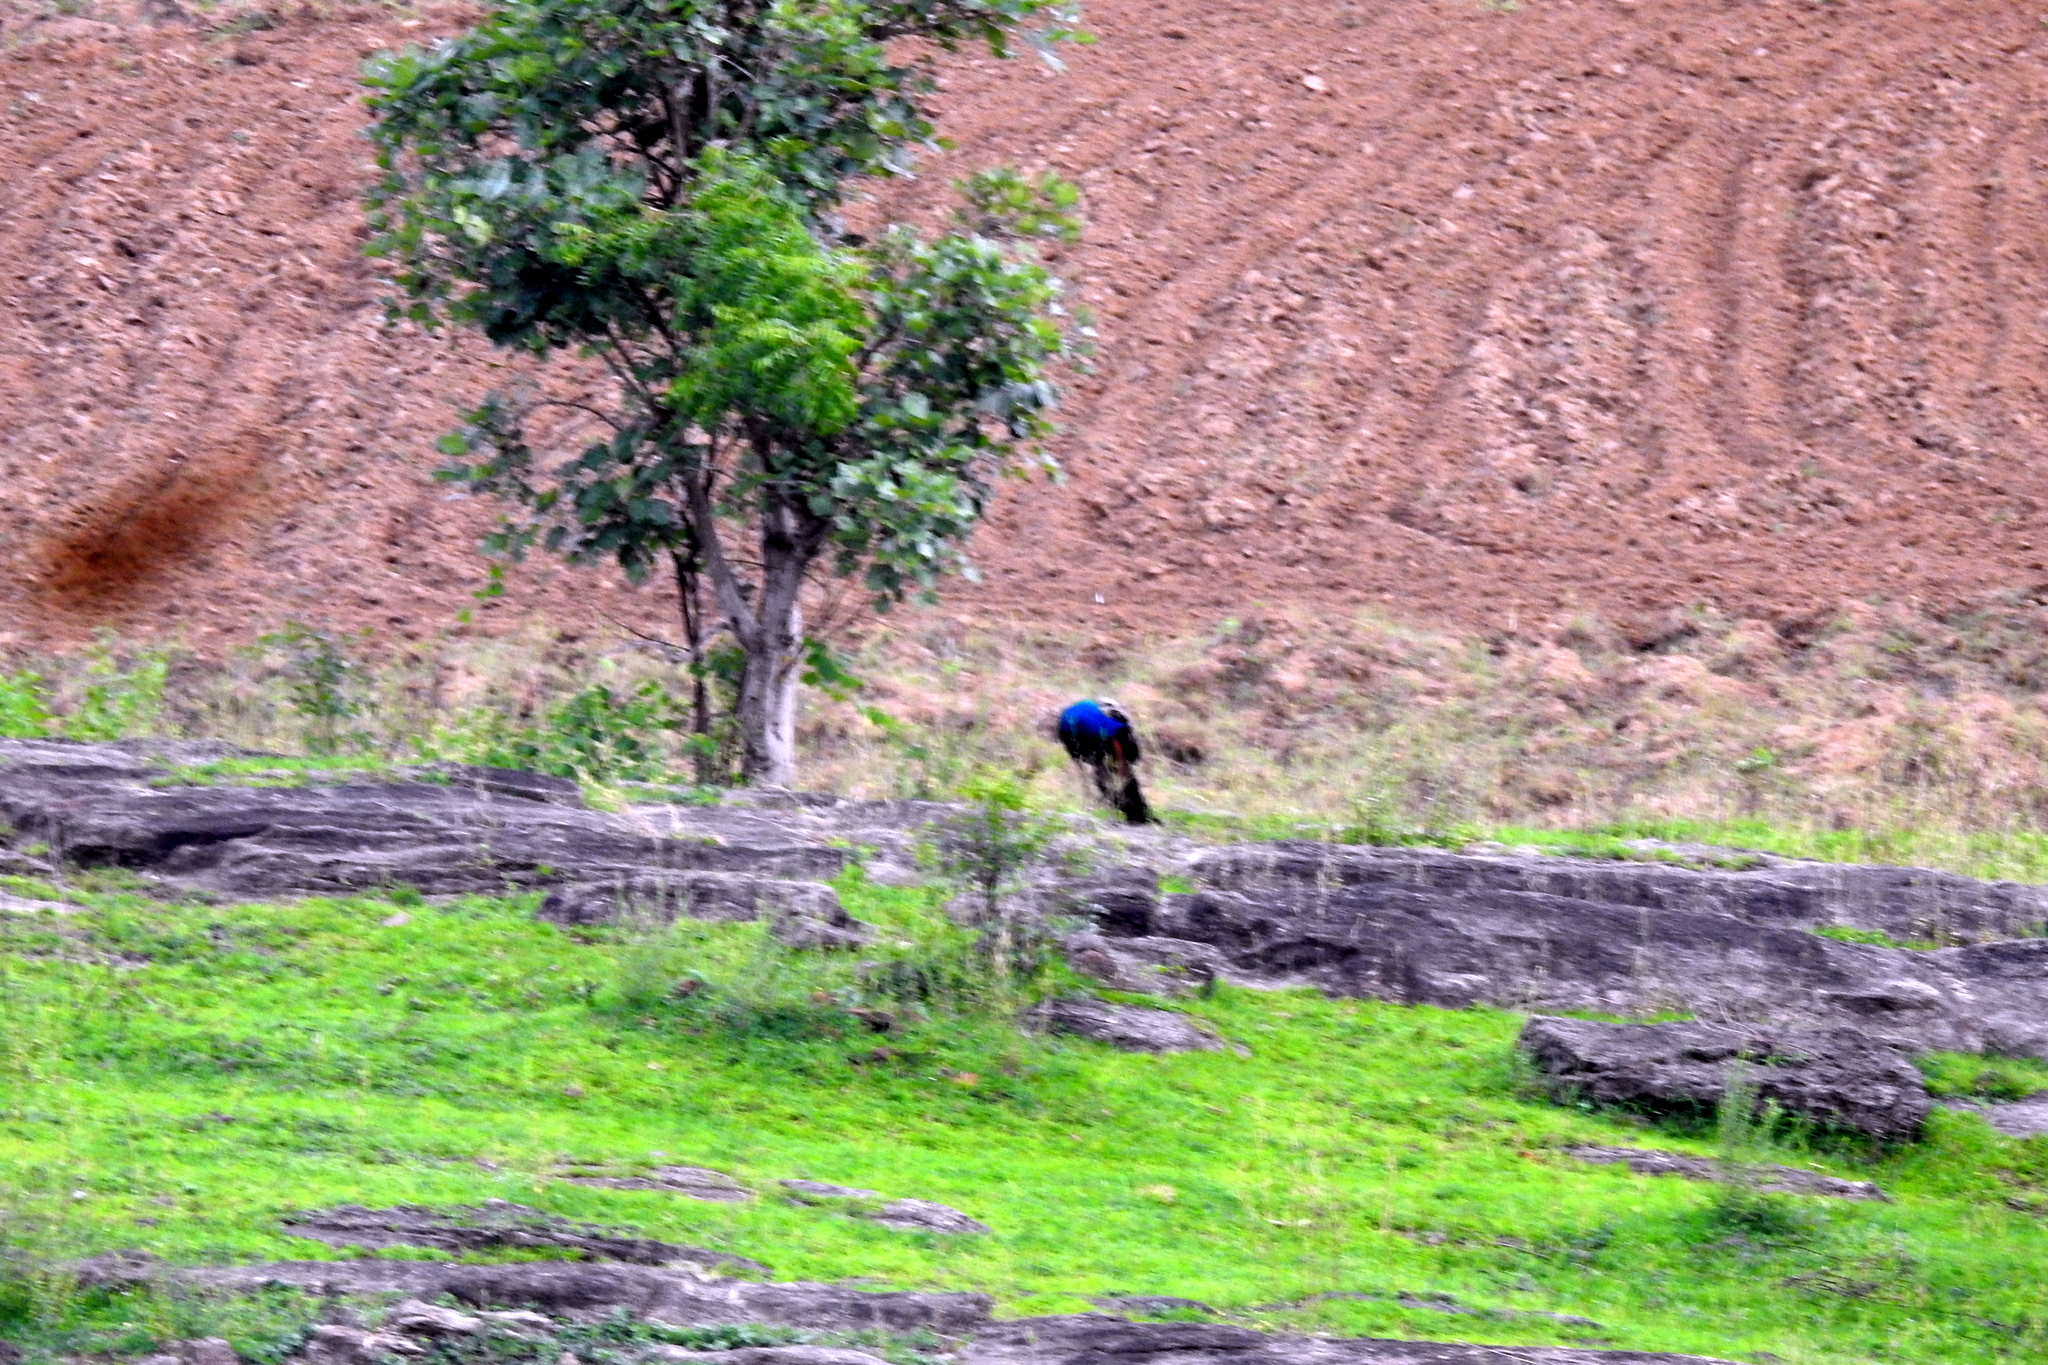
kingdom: Animalia
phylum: Chordata
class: Aves
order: Galliformes
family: Phasianidae
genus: Pavo
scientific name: Pavo cristatus
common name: Indian peafowl
